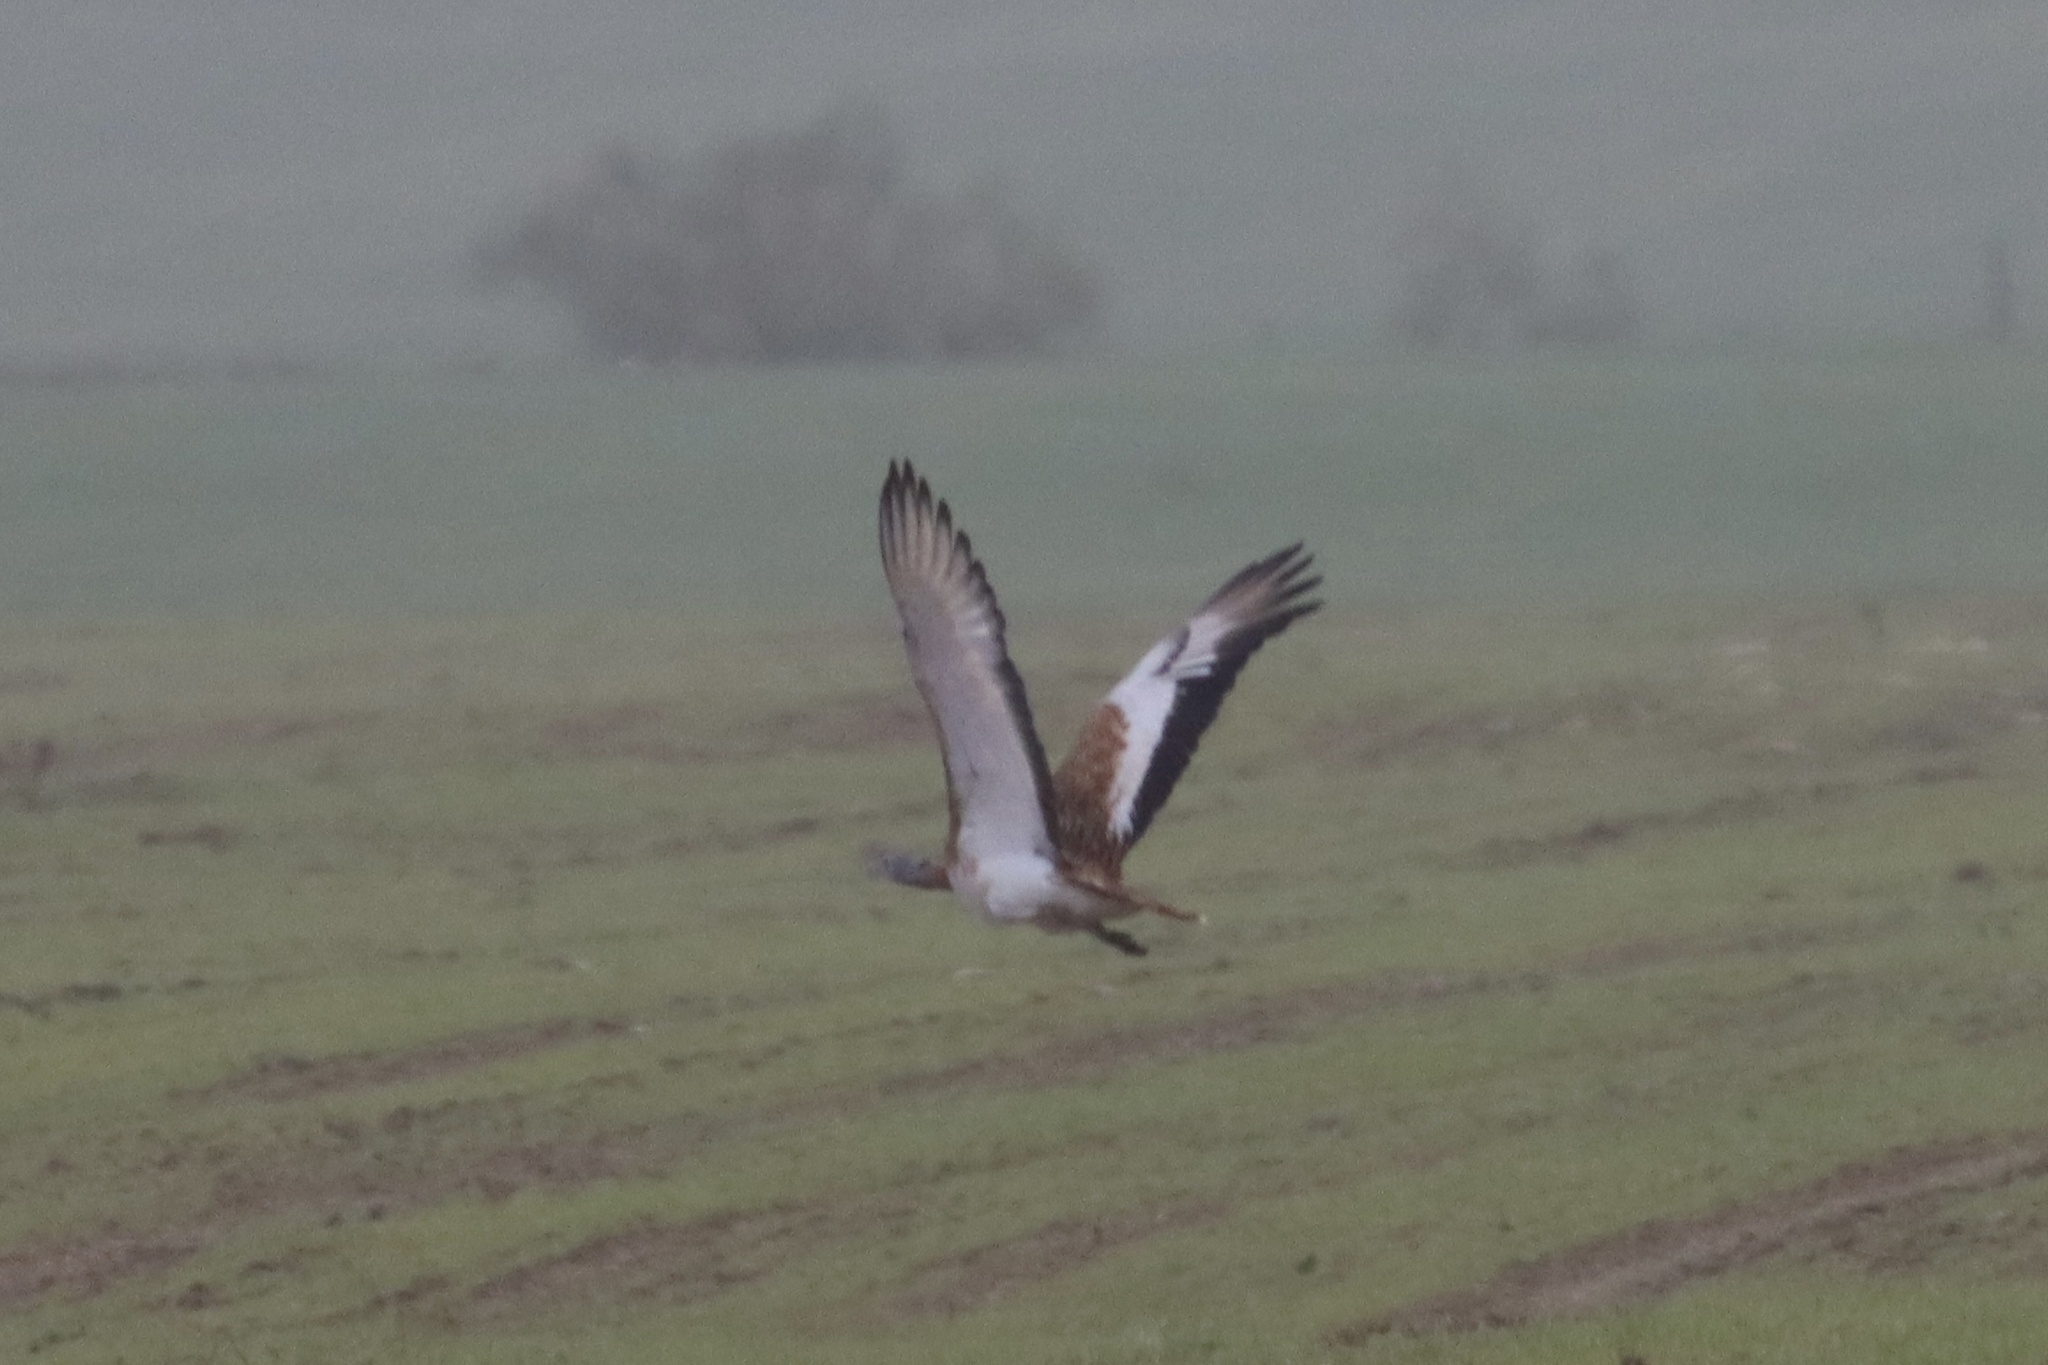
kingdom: Animalia
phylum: Chordata
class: Aves
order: Otidiformes
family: Otididae
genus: Otis
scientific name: Otis tarda
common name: Great bustard
